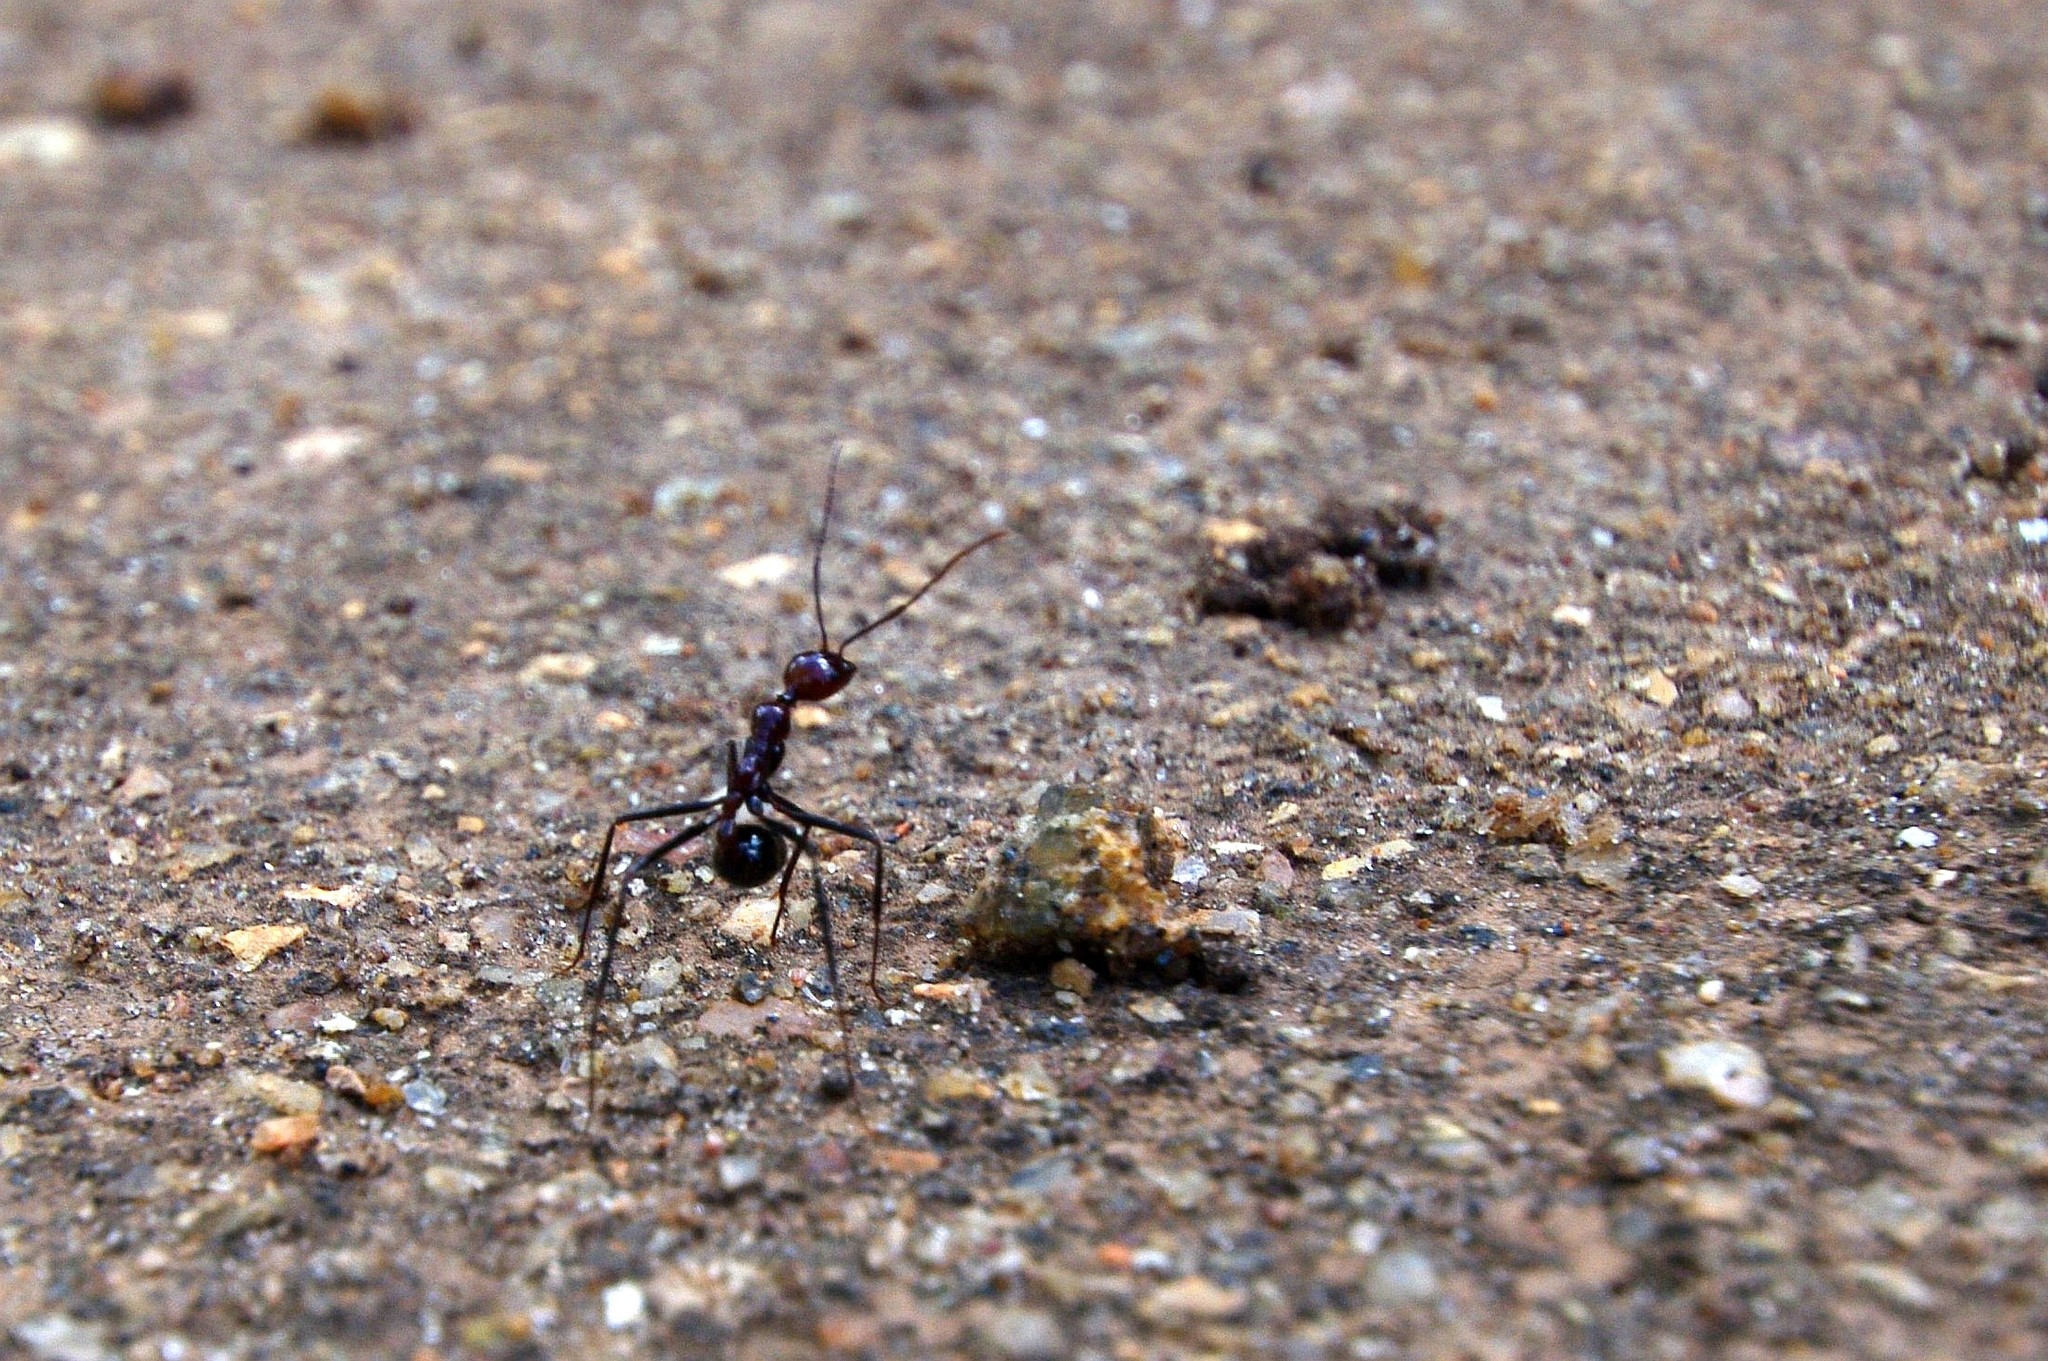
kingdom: Animalia
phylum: Arthropoda
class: Insecta
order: Hymenoptera
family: Formicidae
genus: Aphaenogaster
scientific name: Aphaenogaster swammerdami
